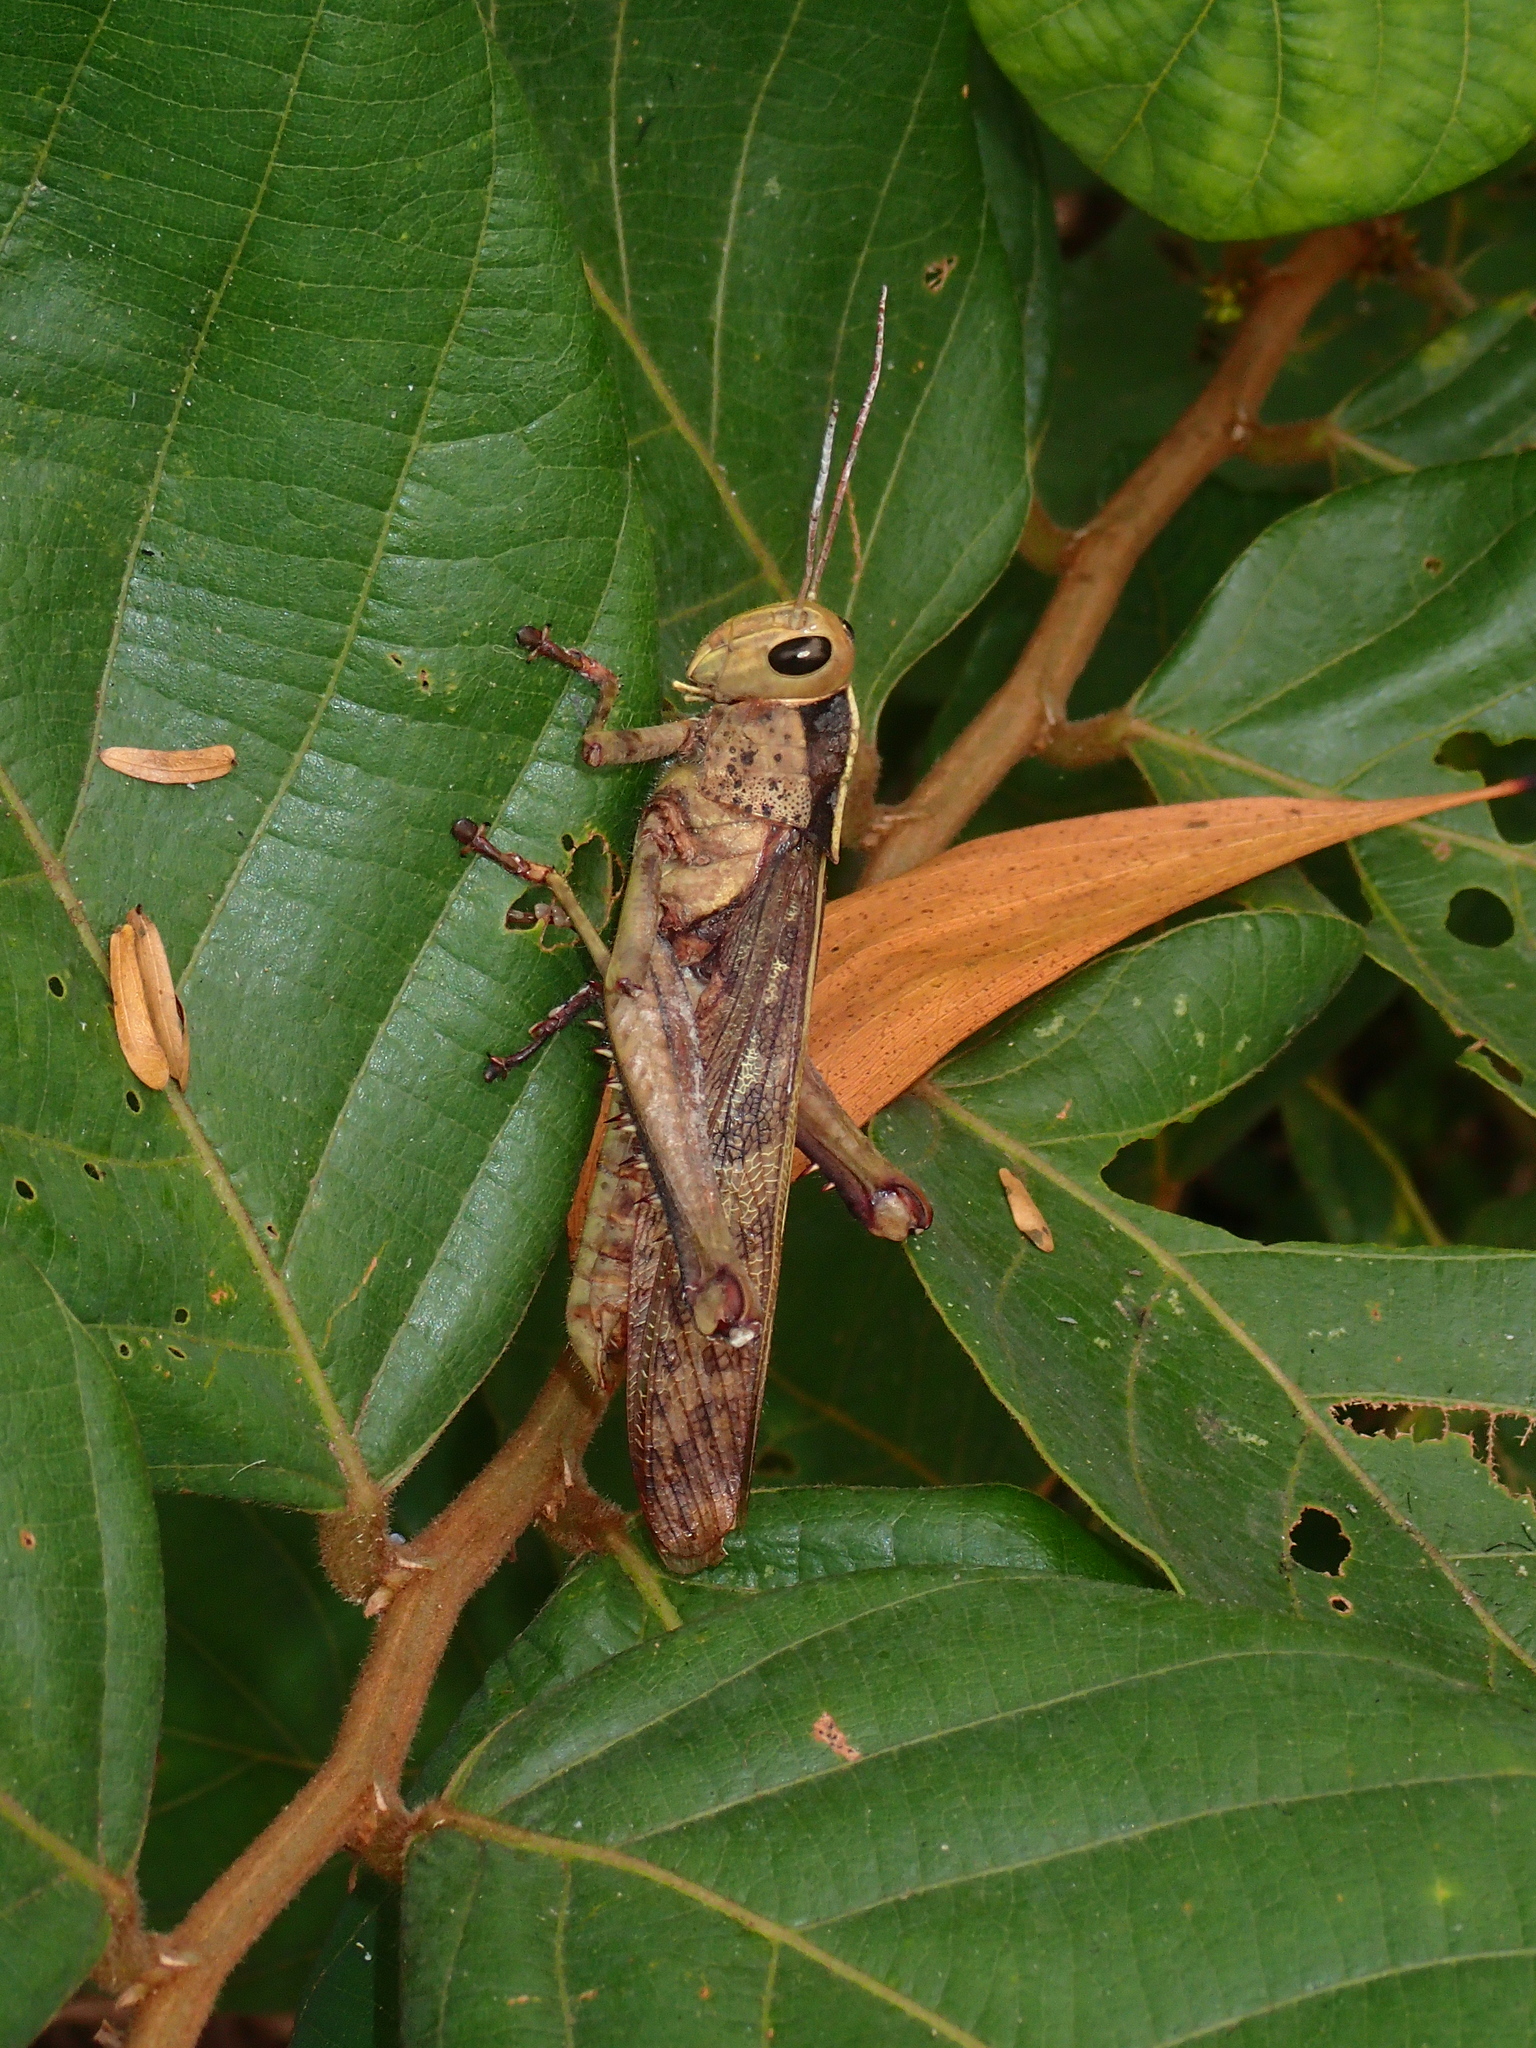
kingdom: Animalia
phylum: Arthropoda
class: Insecta
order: Orthoptera
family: Acrididae
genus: Acanthacris
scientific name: Acanthacris ruficornis
